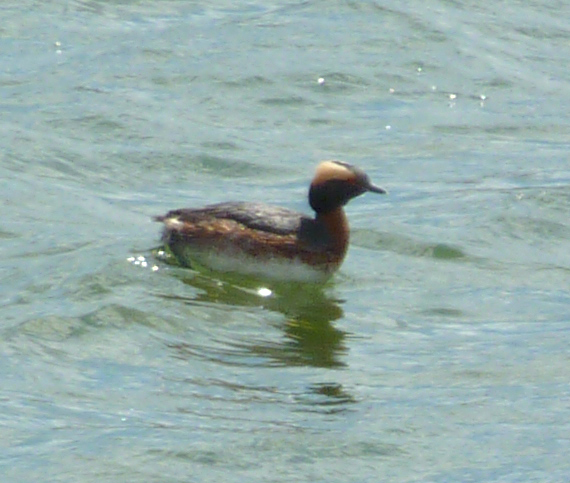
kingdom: Animalia
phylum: Chordata
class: Aves
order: Podicipediformes
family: Podicipedidae
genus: Podiceps
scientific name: Podiceps auritus
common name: Horned grebe
